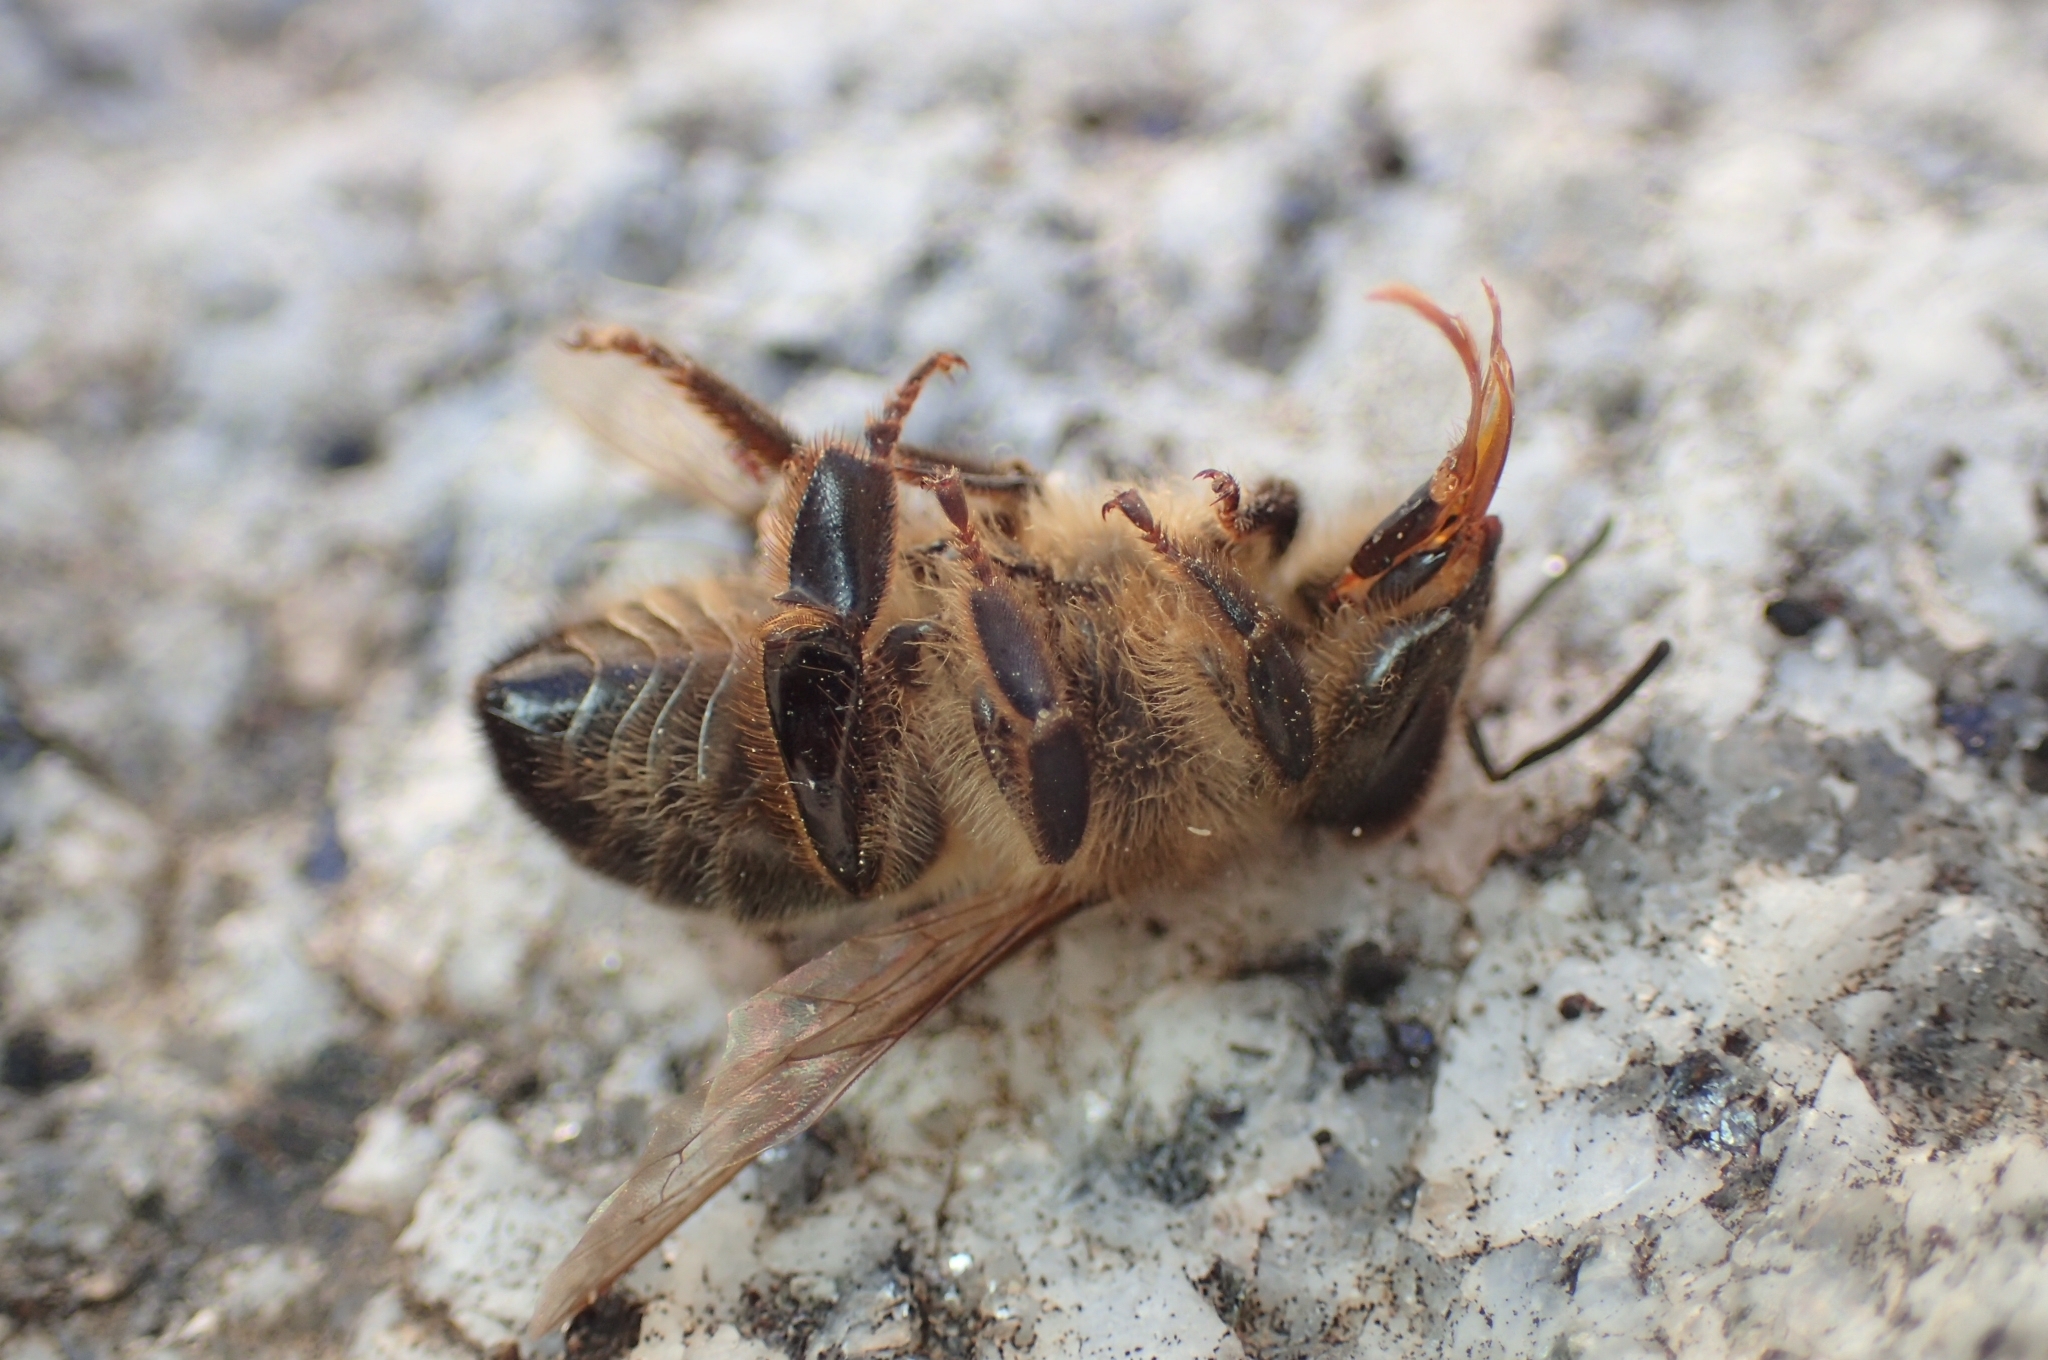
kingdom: Animalia
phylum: Arthropoda
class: Insecta
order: Hymenoptera
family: Apidae
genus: Apis
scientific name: Apis mellifera
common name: Honey bee
